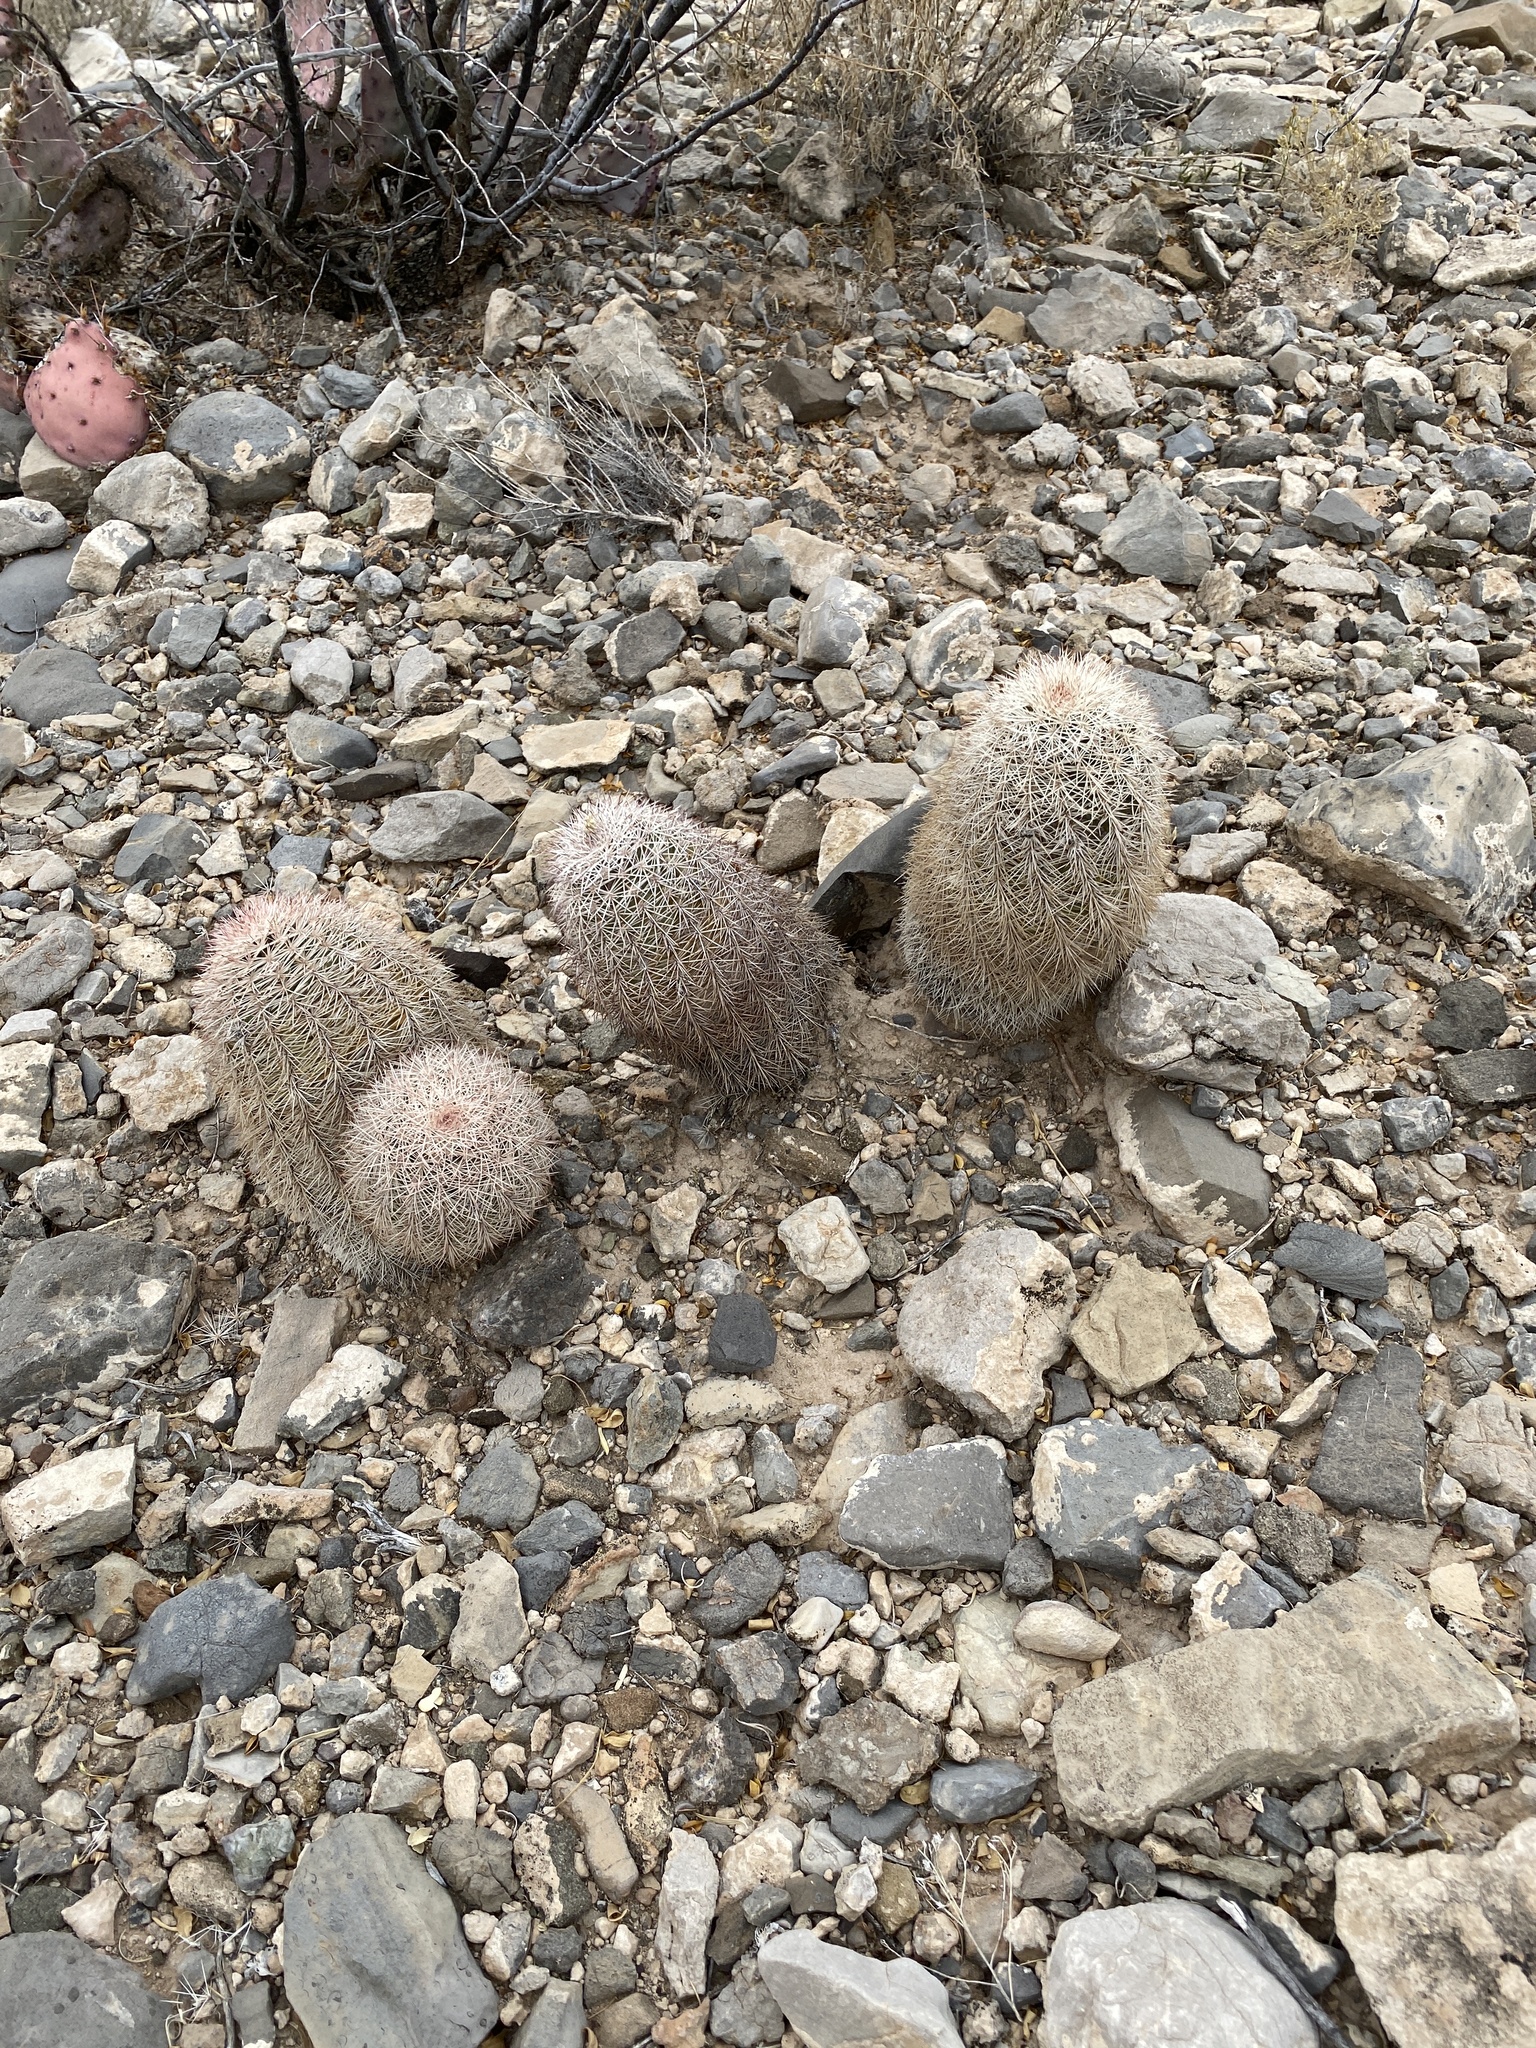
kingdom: Plantae
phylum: Tracheophyta
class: Magnoliopsida
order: Caryophyllales
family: Cactaceae
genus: Echinocereus
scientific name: Echinocereus dasyacanthus
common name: Spiny hedgehog cactus
